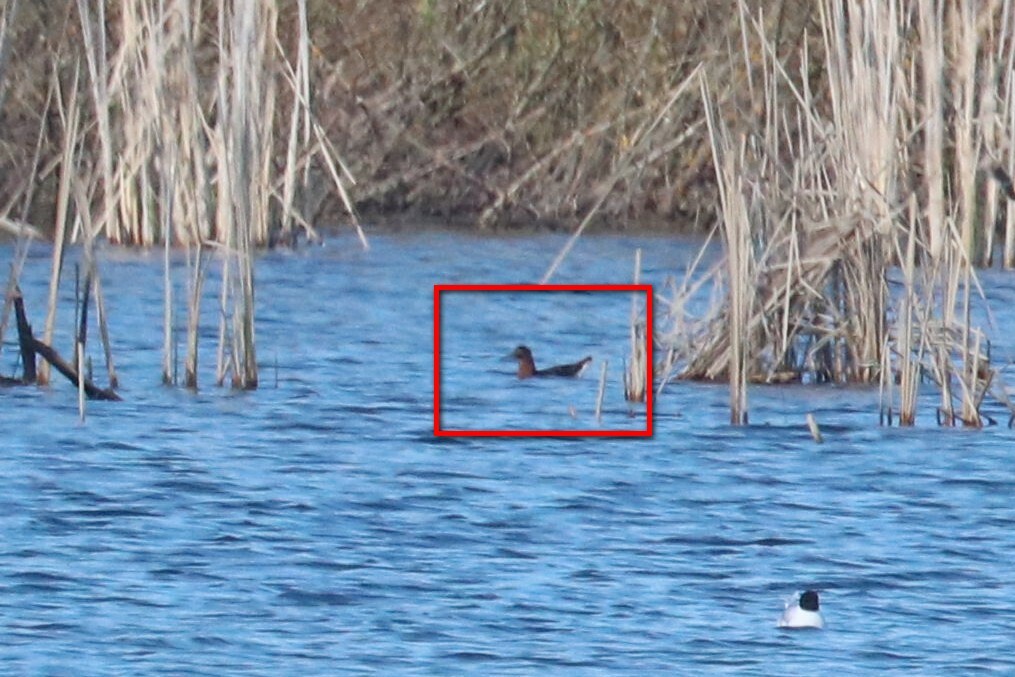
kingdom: Animalia
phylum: Chordata
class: Aves
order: Charadriiformes
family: Scolopacidae
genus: Calidris
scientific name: Calidris pugnax
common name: Ruff
